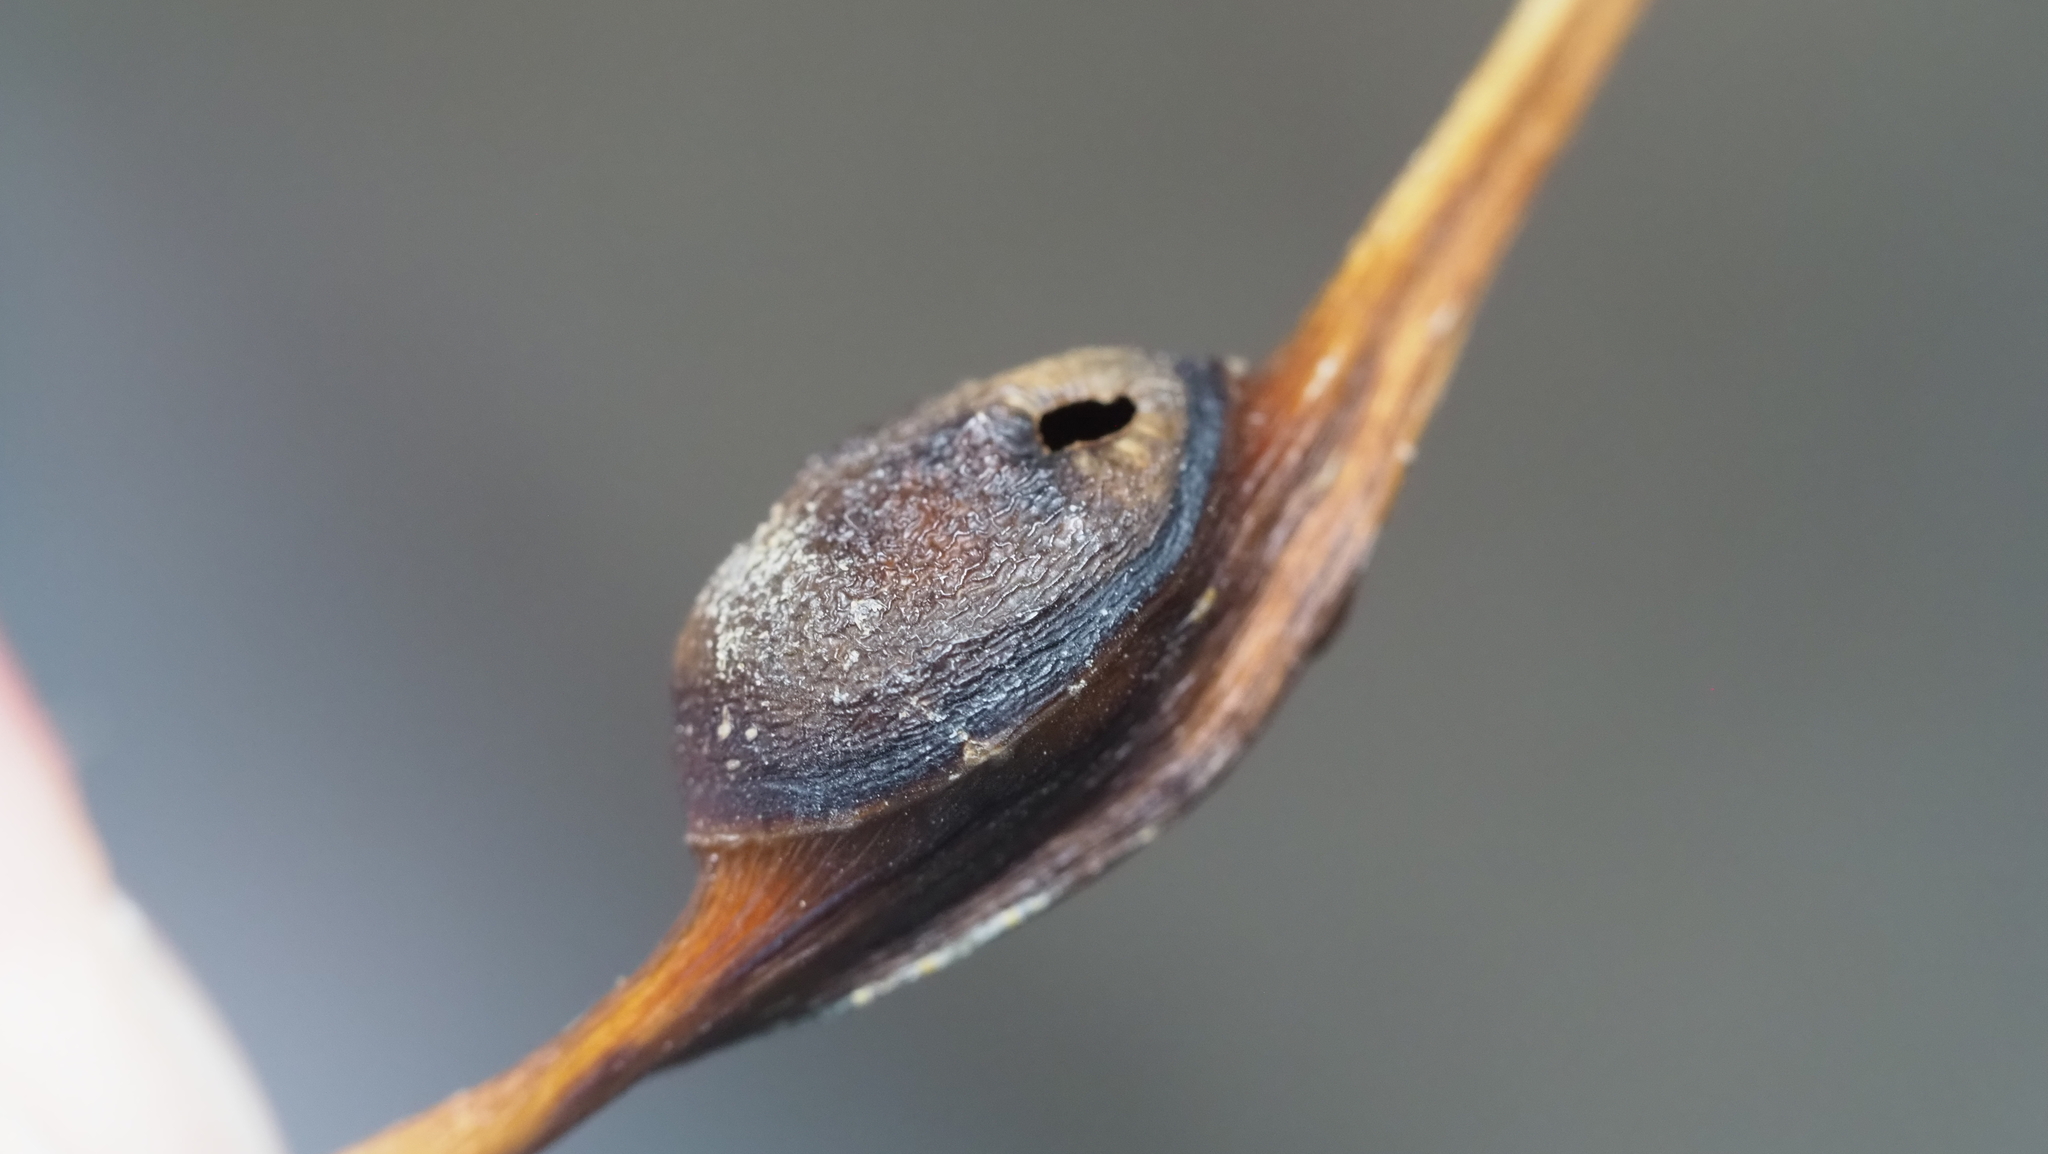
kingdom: Animalia
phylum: Arthropoda
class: Insecta
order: Hemiptera
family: Aphididae
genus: Pemphigus
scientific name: Pemphigus populitransversus
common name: Poplar petiolegall aphid
